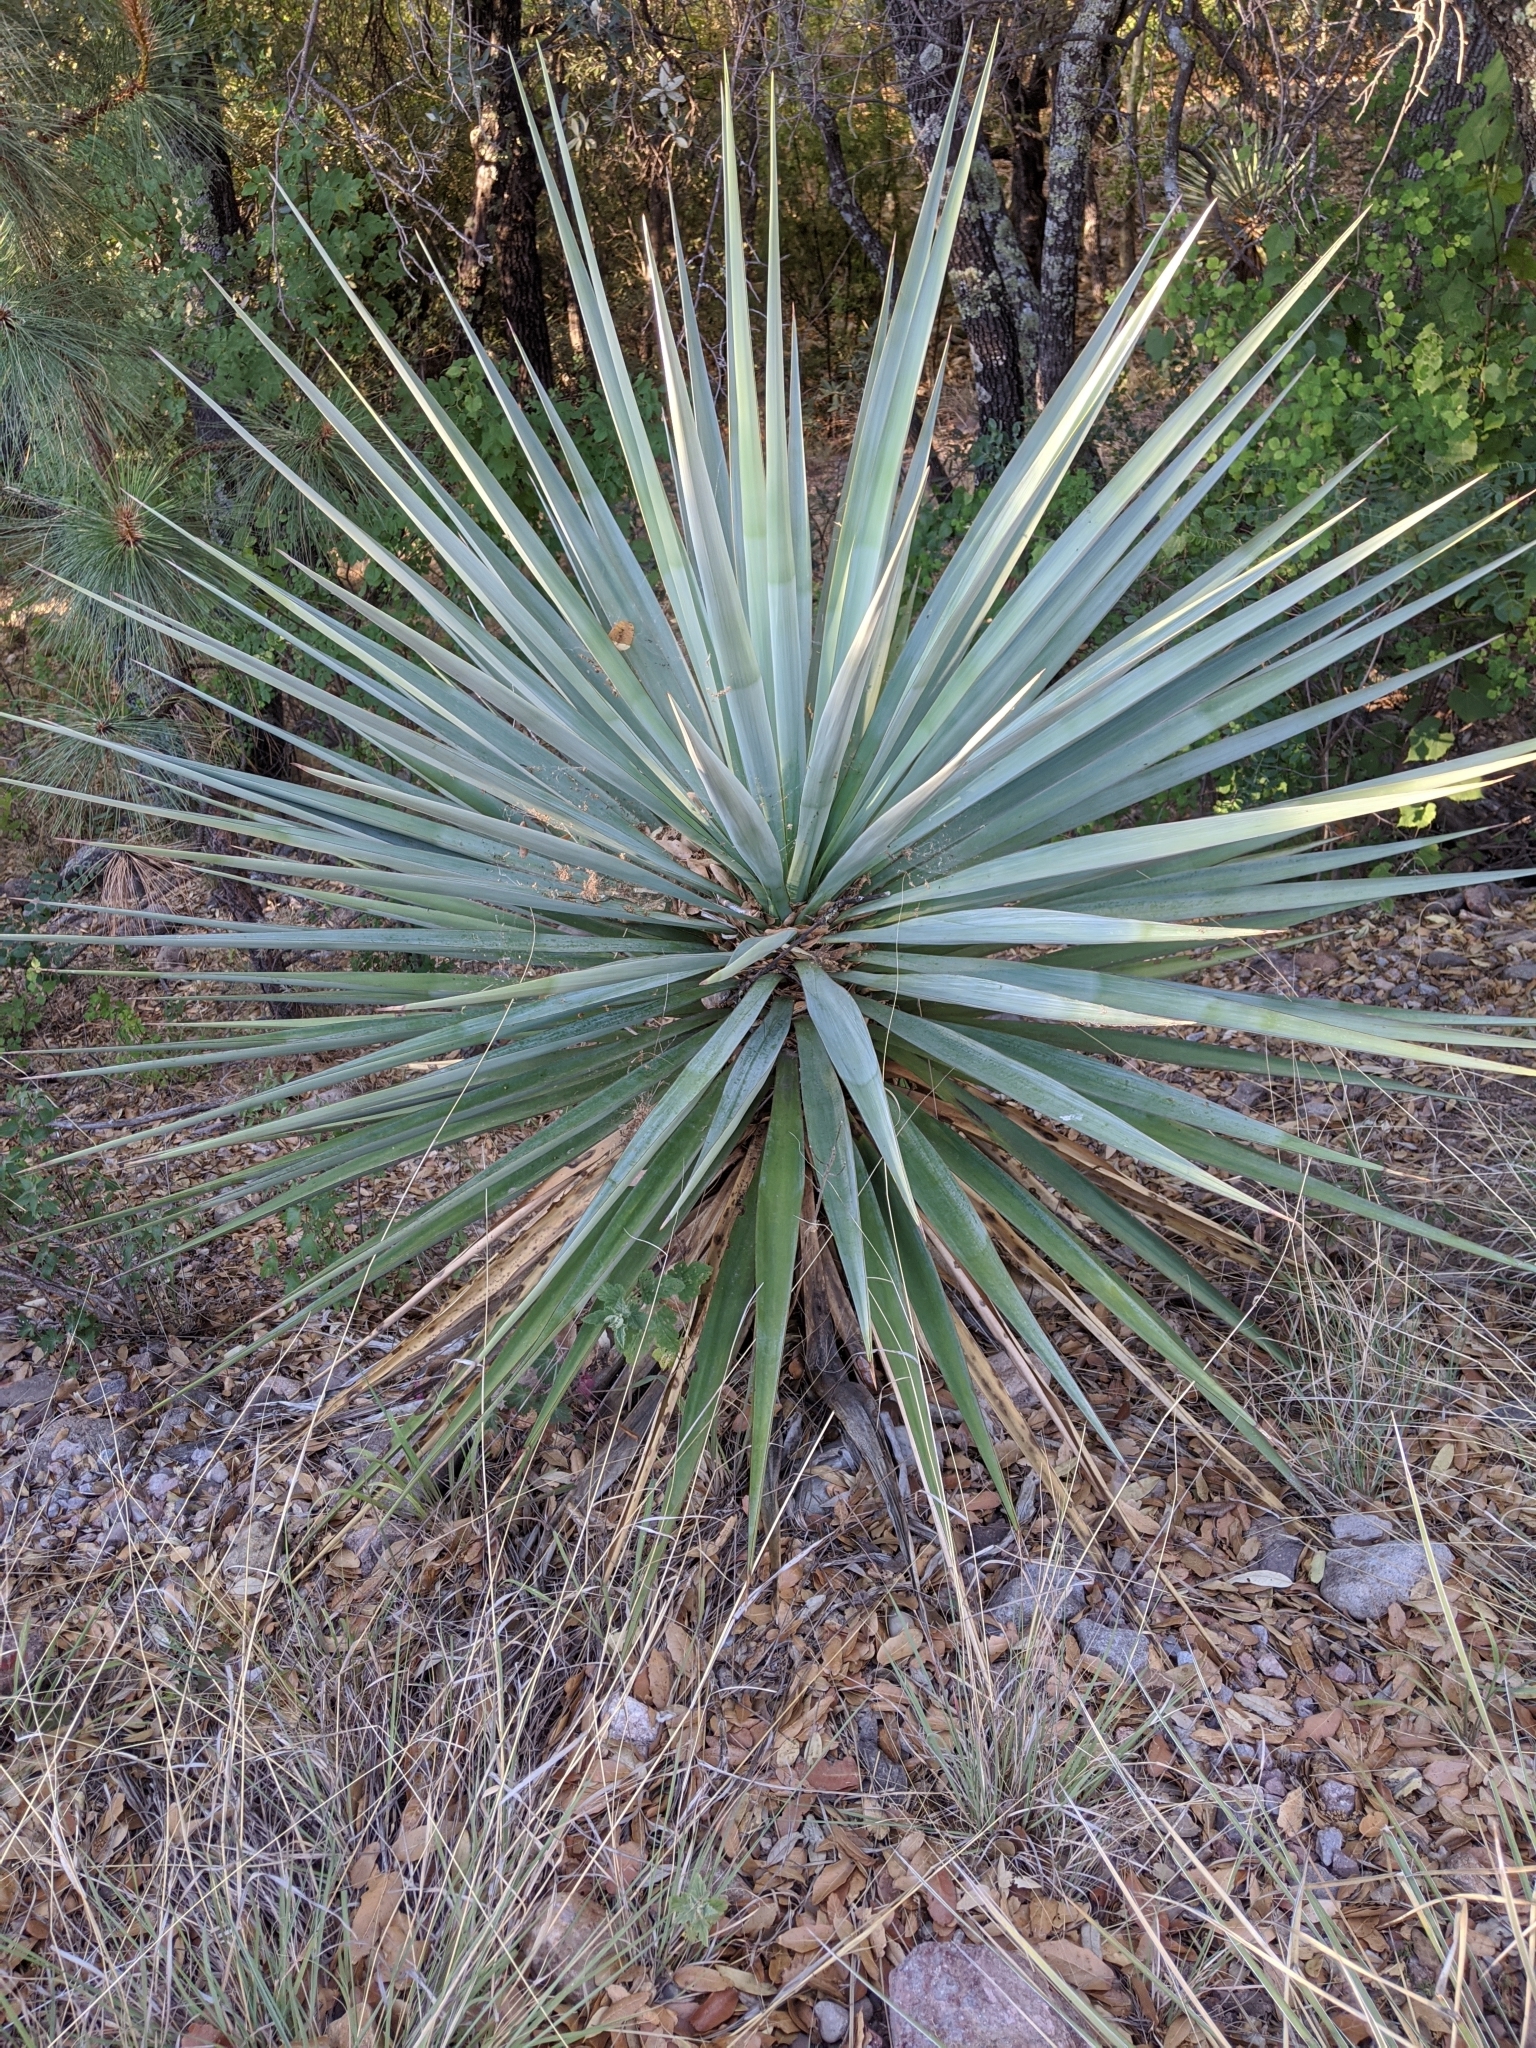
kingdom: Plantae
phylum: Tracheophyta
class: Liliopsida
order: Asparagales
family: Asparagaceae
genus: Yucca
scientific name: Yucca madrensis
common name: Hoary yucca
